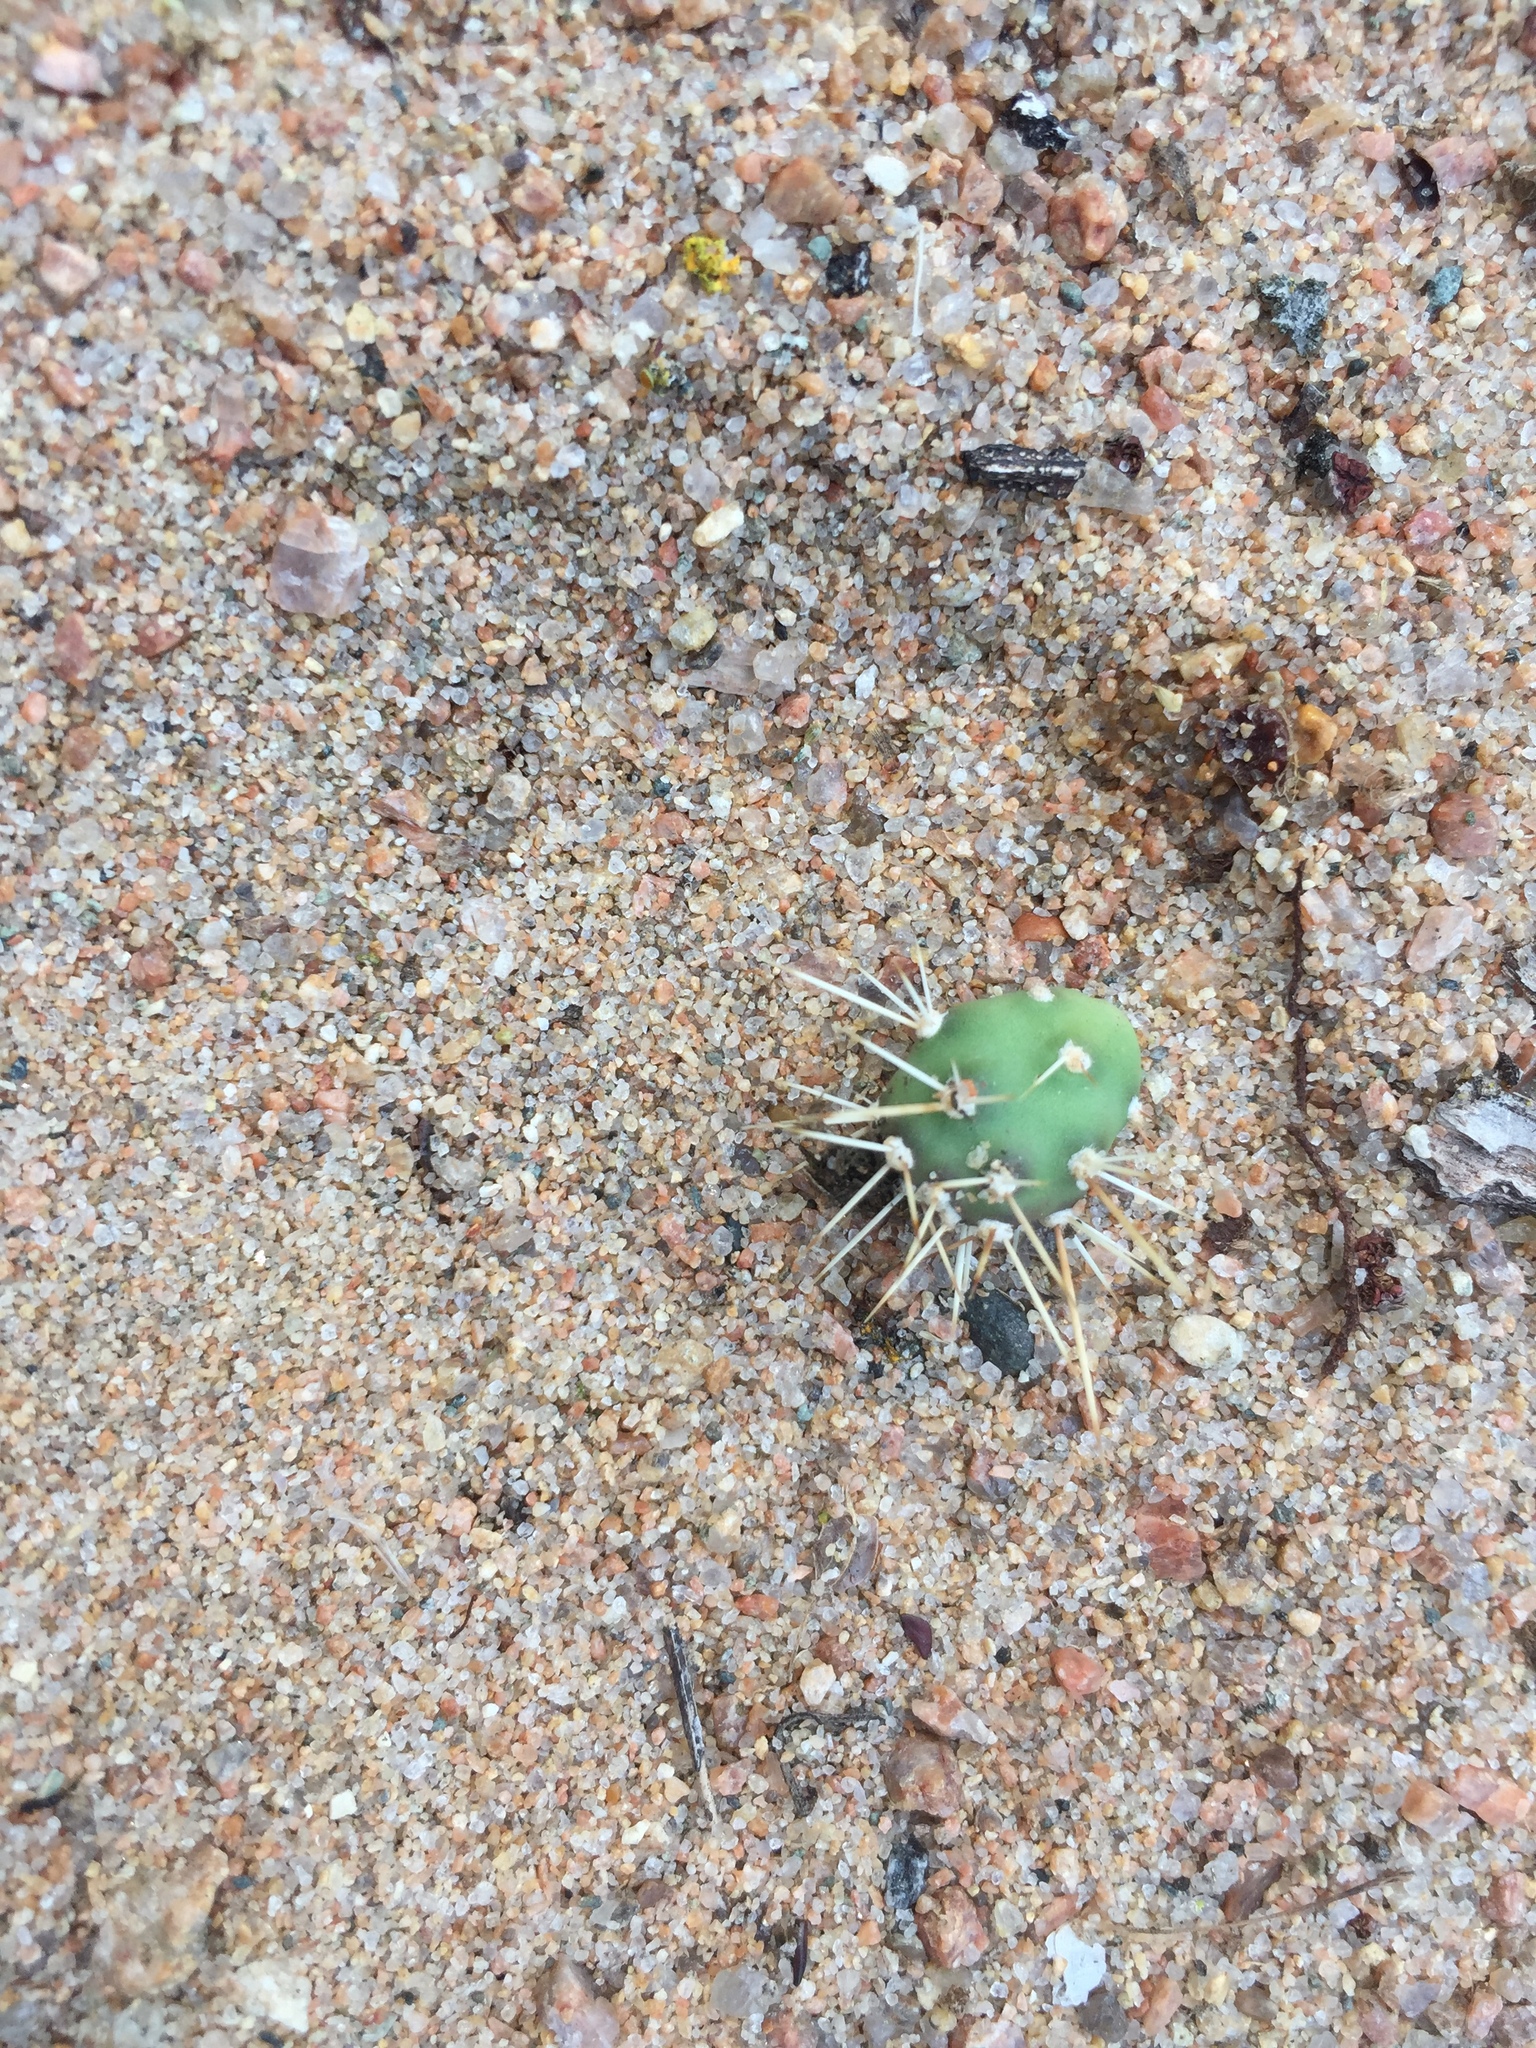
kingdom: Plantae
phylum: Tracheophyta
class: Magnoliopsida
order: Caryophyllales
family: Cactaceae
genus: Opuntia
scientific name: Opuntia fragilis
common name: Brittle cactus
